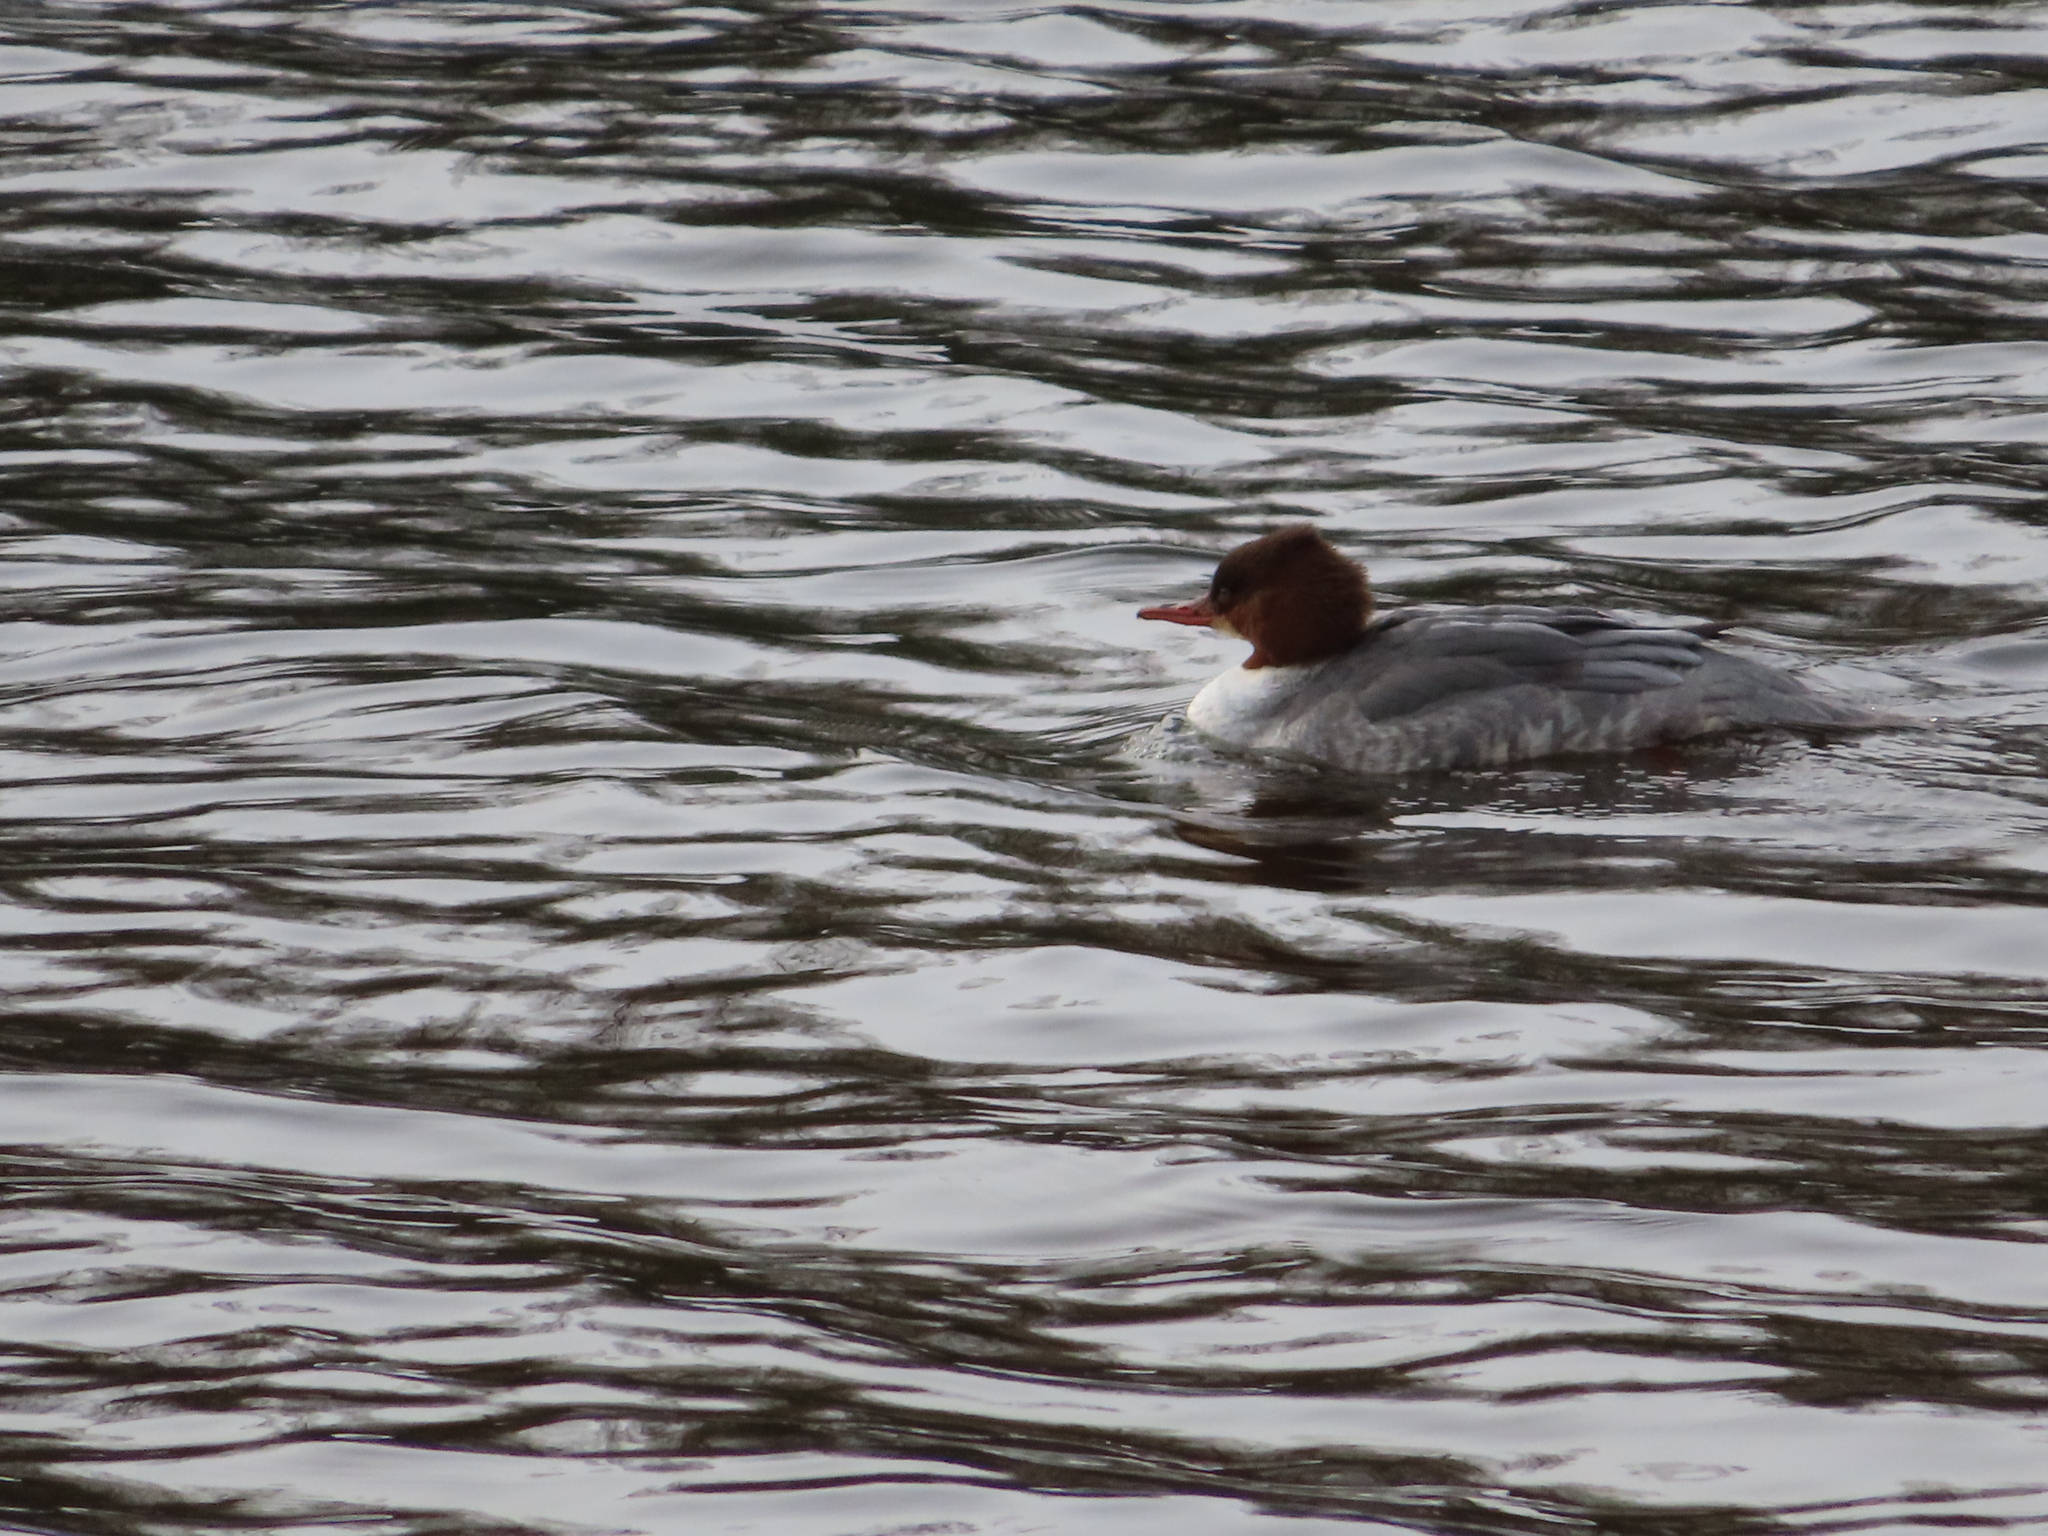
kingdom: Animalia
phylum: Chordata
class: Aves
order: Anseriformes
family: Anatidae
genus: Mergus
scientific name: Mergus merganser
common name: Common merganser
